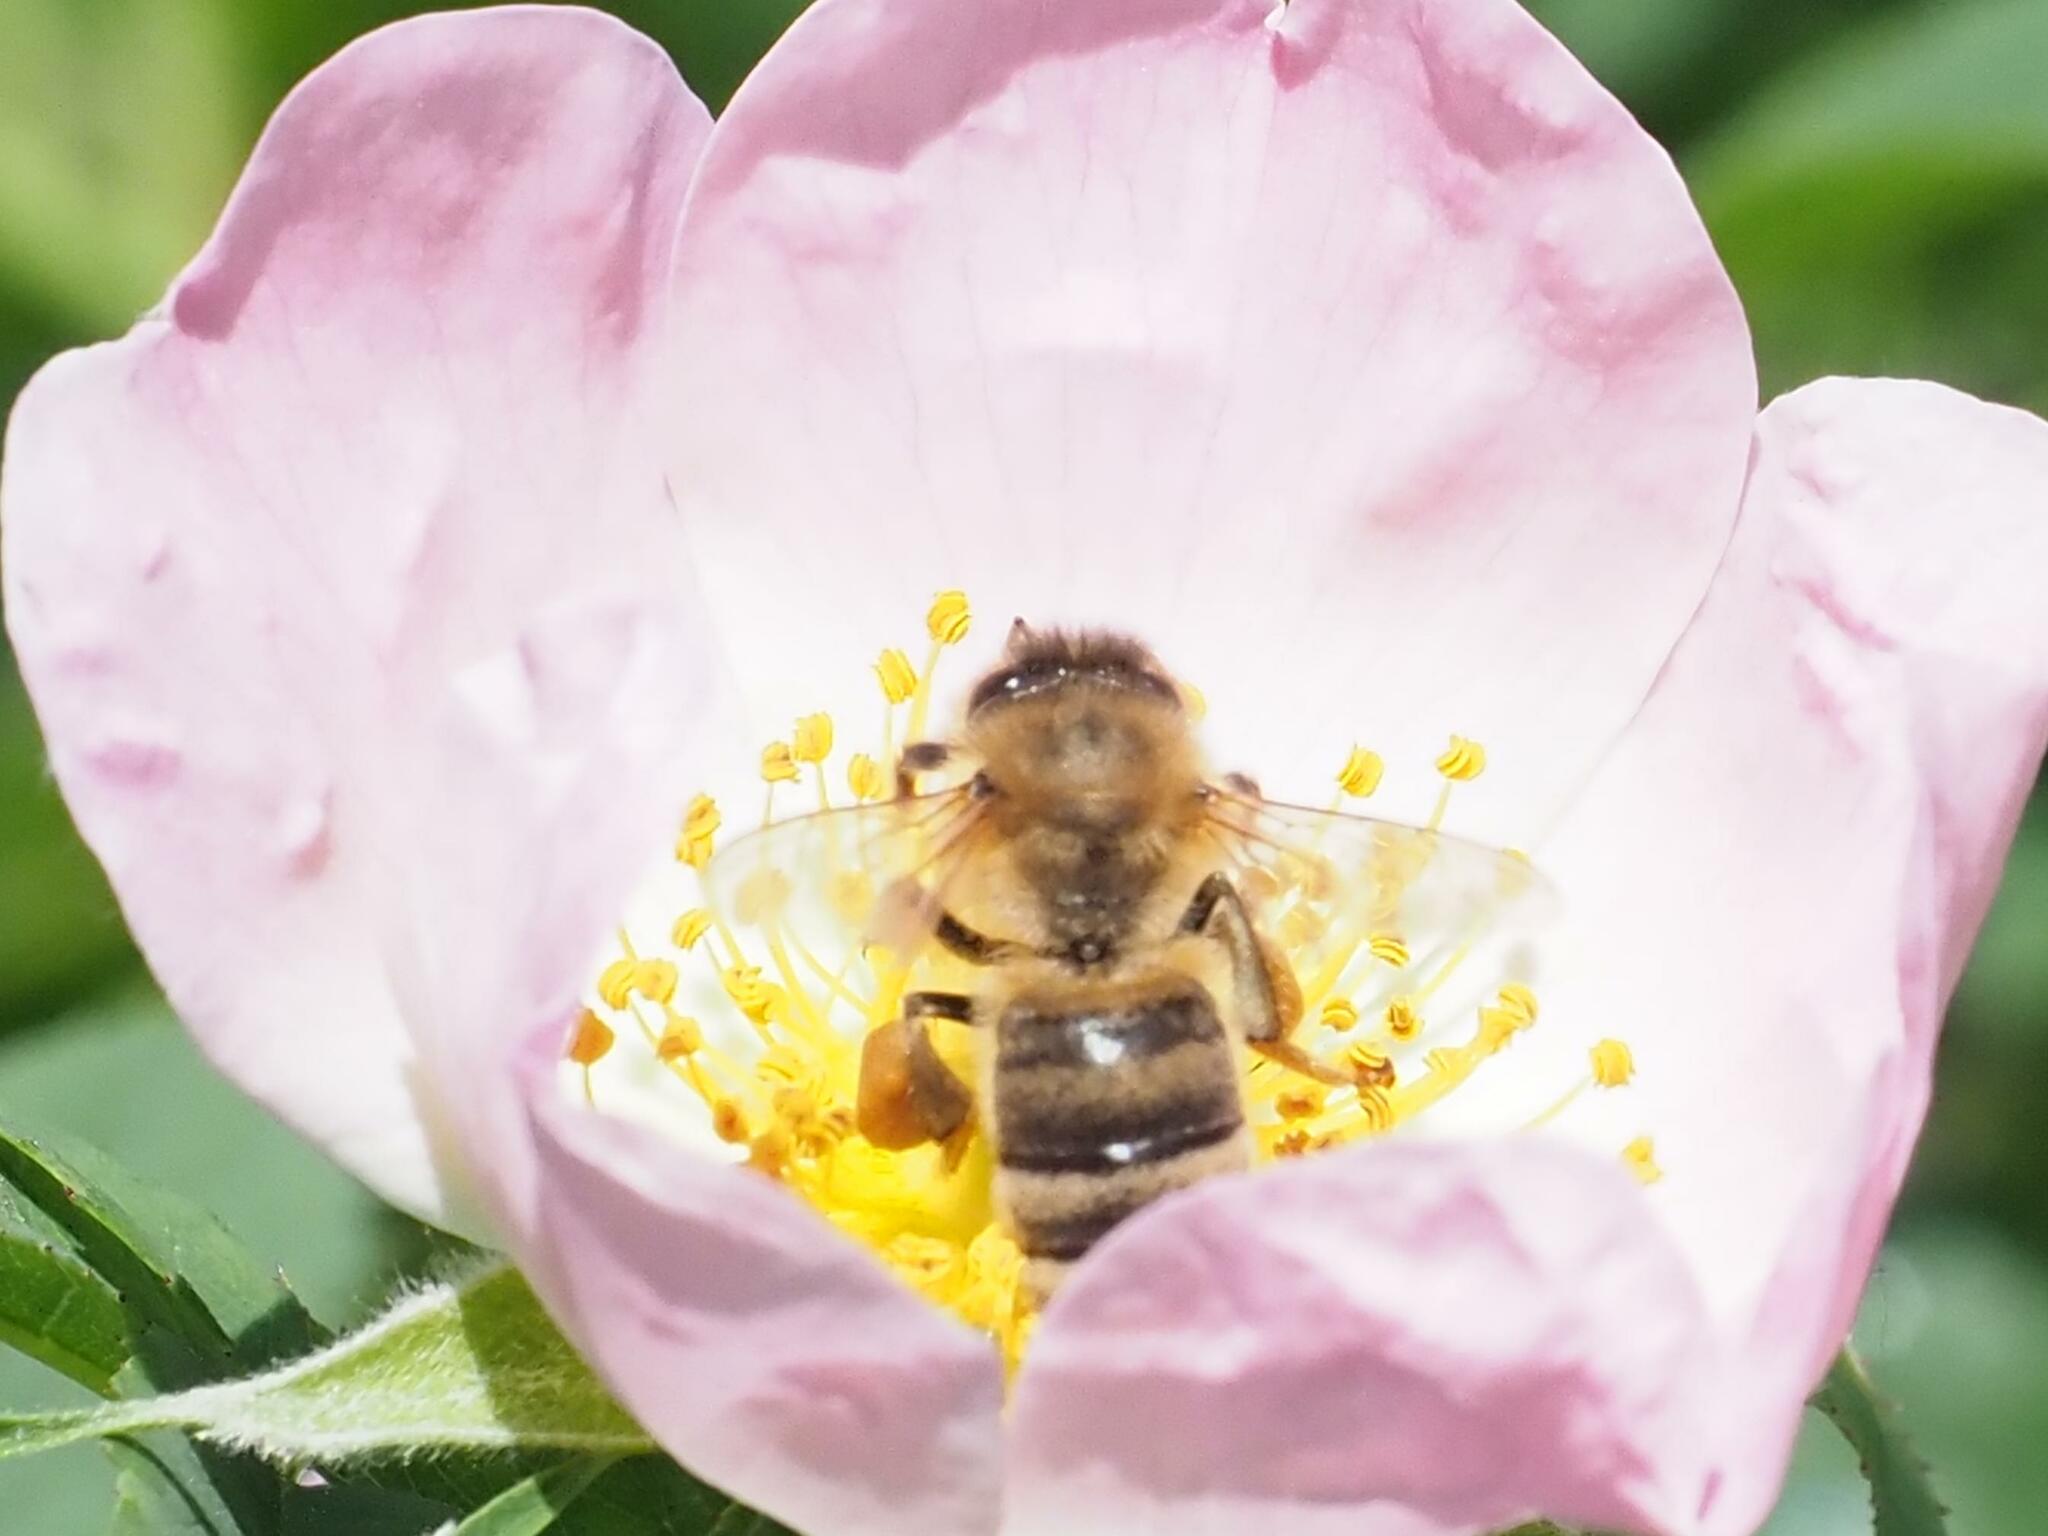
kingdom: Animalia
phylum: Arthropoda
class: Insecta
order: Hymenoptera
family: Apidae
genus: Apis
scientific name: Apis mellifera
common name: Honey bee
